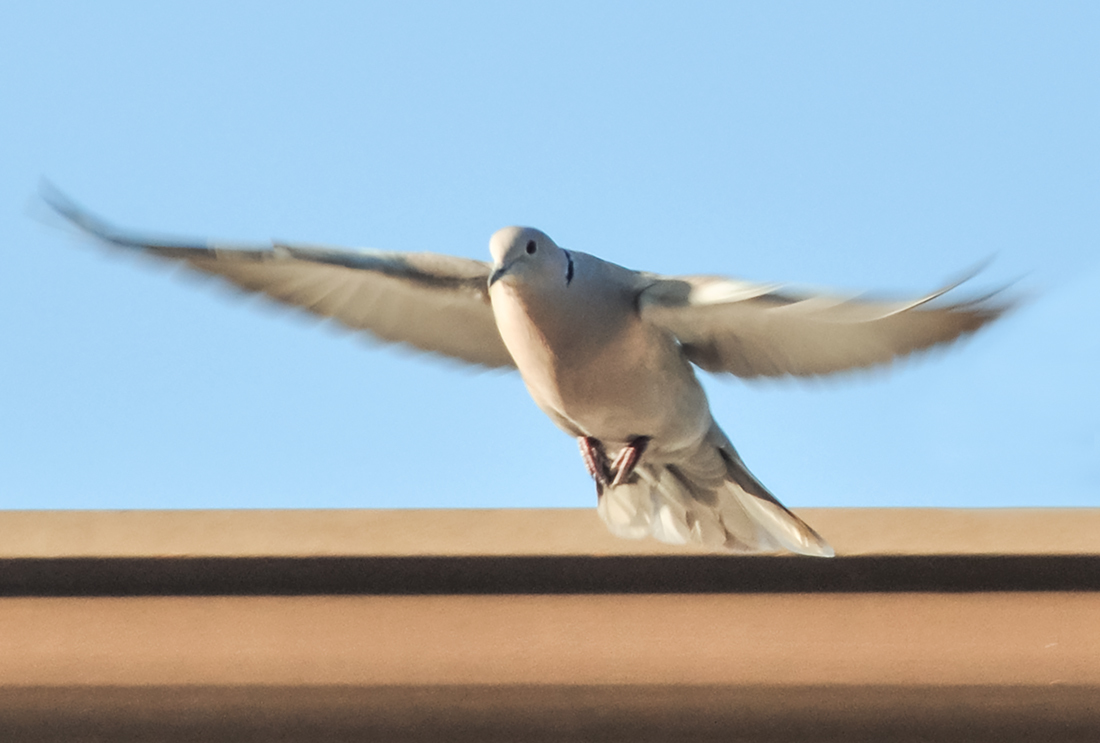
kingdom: Animalia
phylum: Chordata
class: Aves
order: Columbiformes
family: Columbidae
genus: Streptopelia
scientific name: Streptopelia decaocto
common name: Eurasian collared dove
